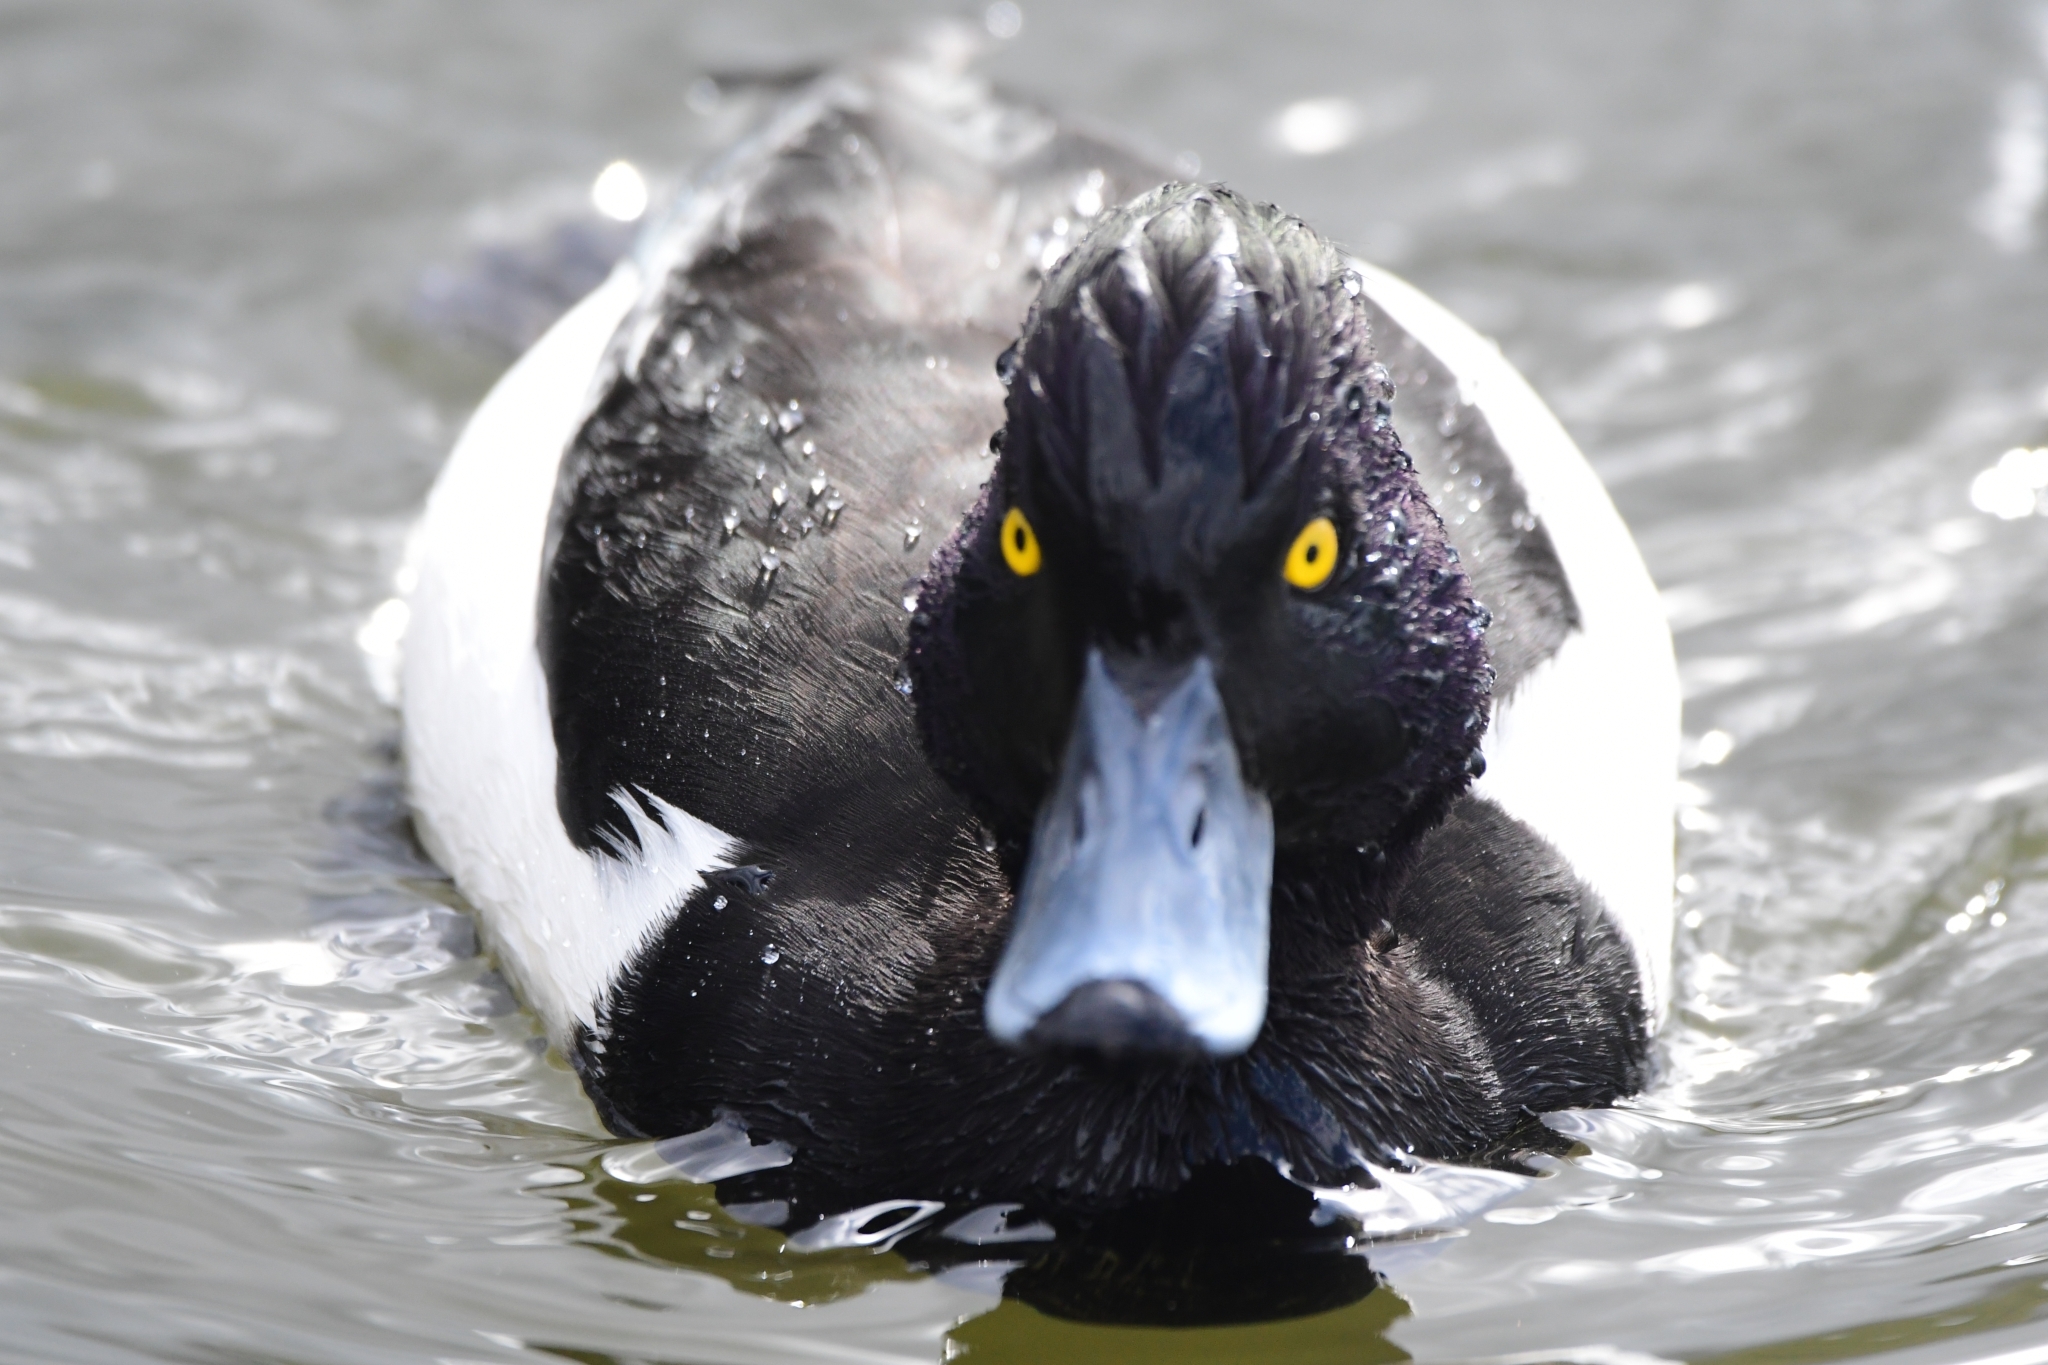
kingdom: Animalia
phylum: Chordata
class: Aves
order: Anseriformes
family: Anatidae
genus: Aythya
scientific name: Aythya fuligula
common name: Tufted duck
